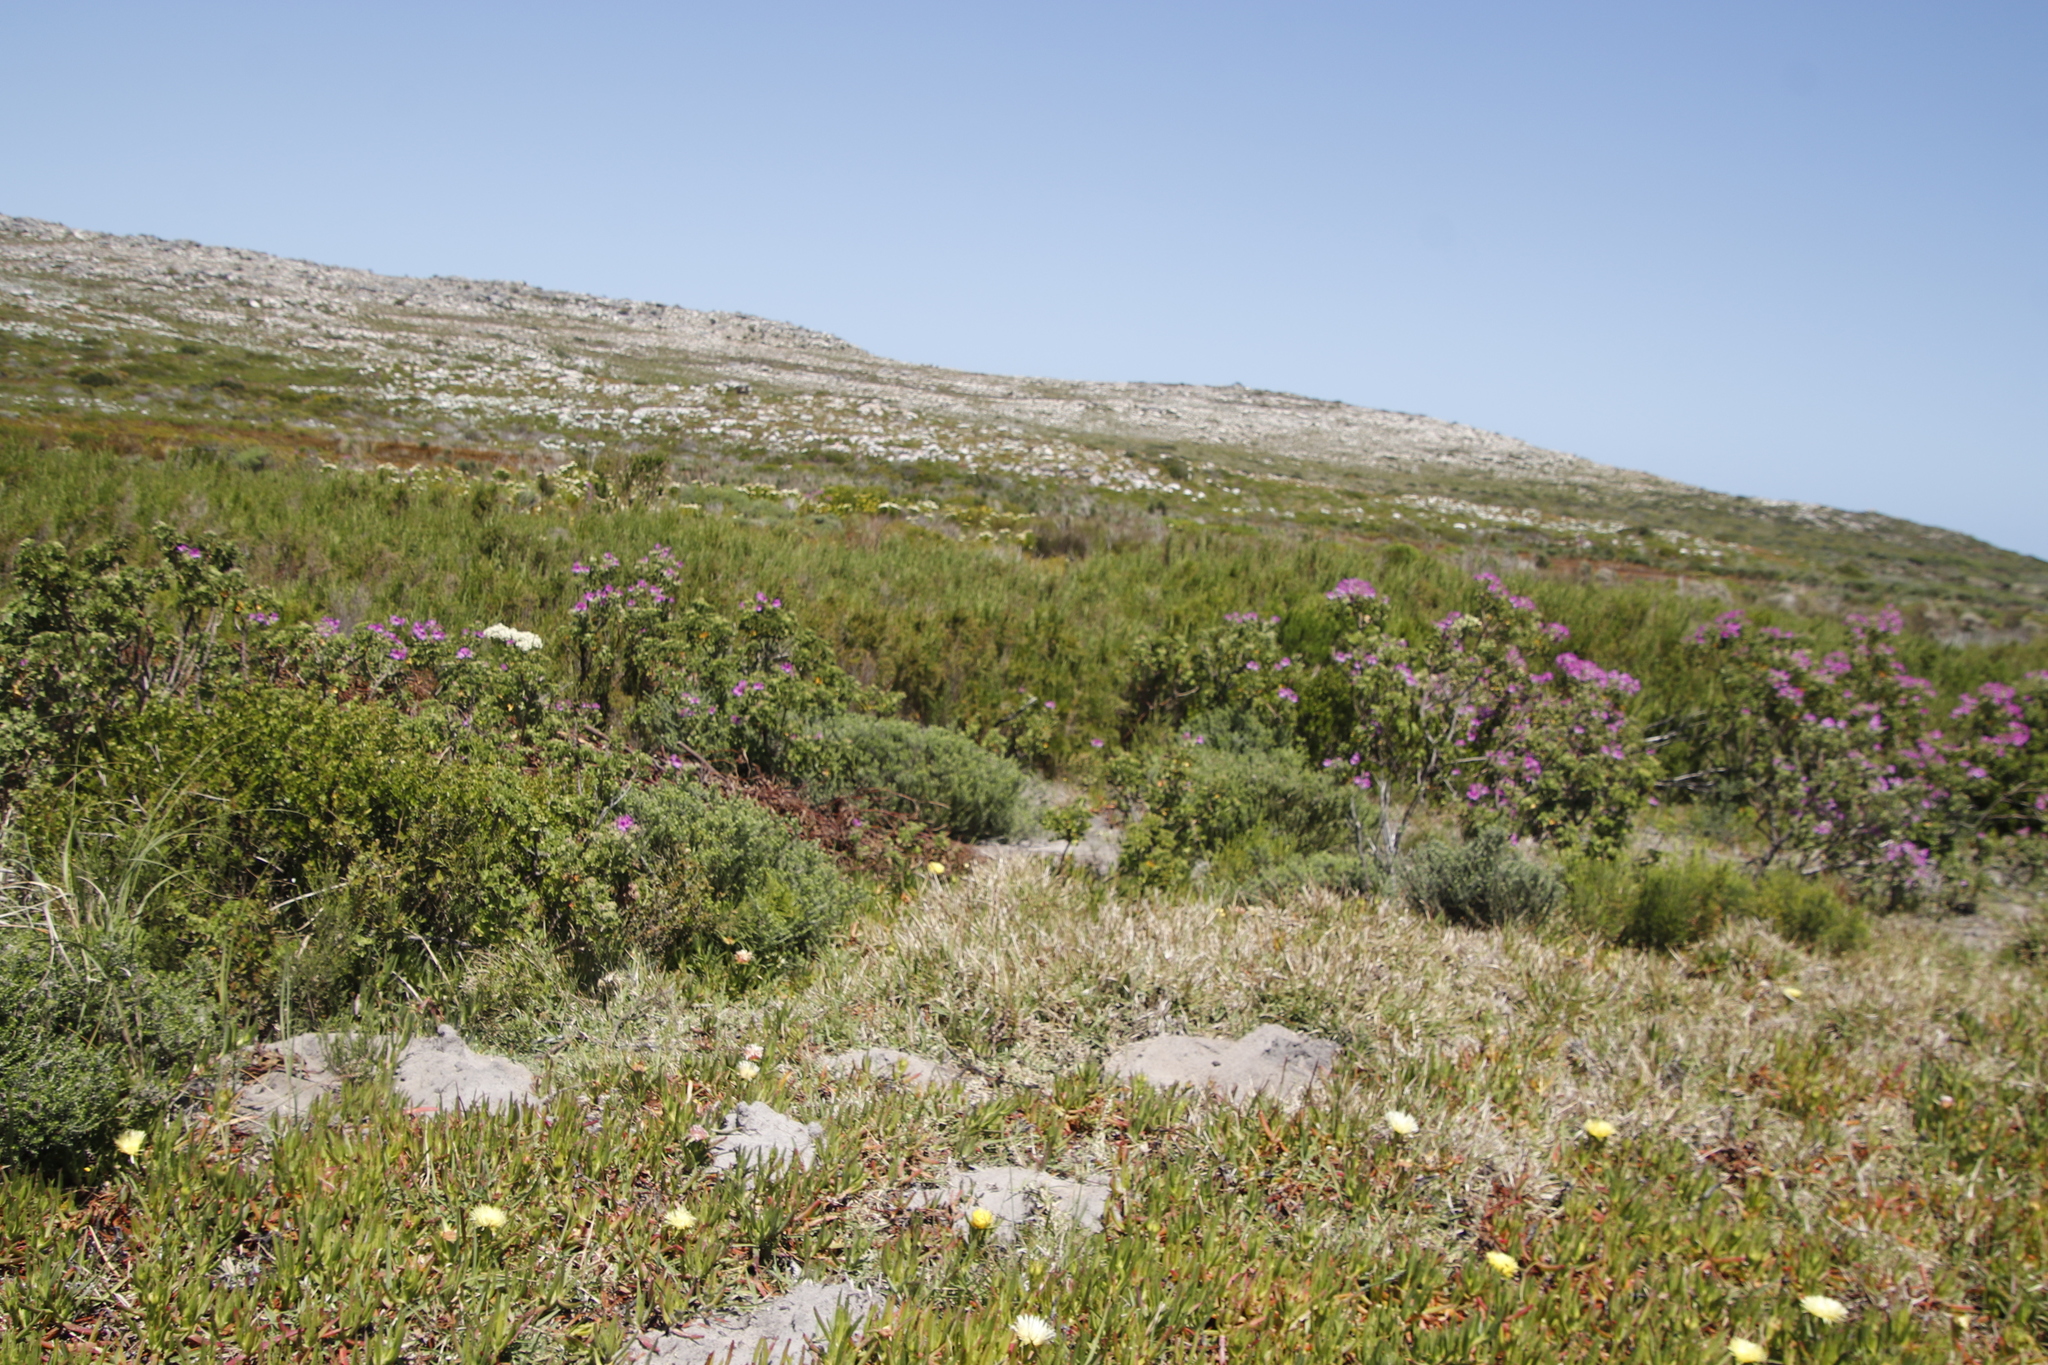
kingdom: Plantae
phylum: Tracheophyta
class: Magnoliopsida
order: Geraniales
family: Geraniaceae
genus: Pelargonium
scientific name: Pelargonium cucullatum
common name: Tree pelargonium
